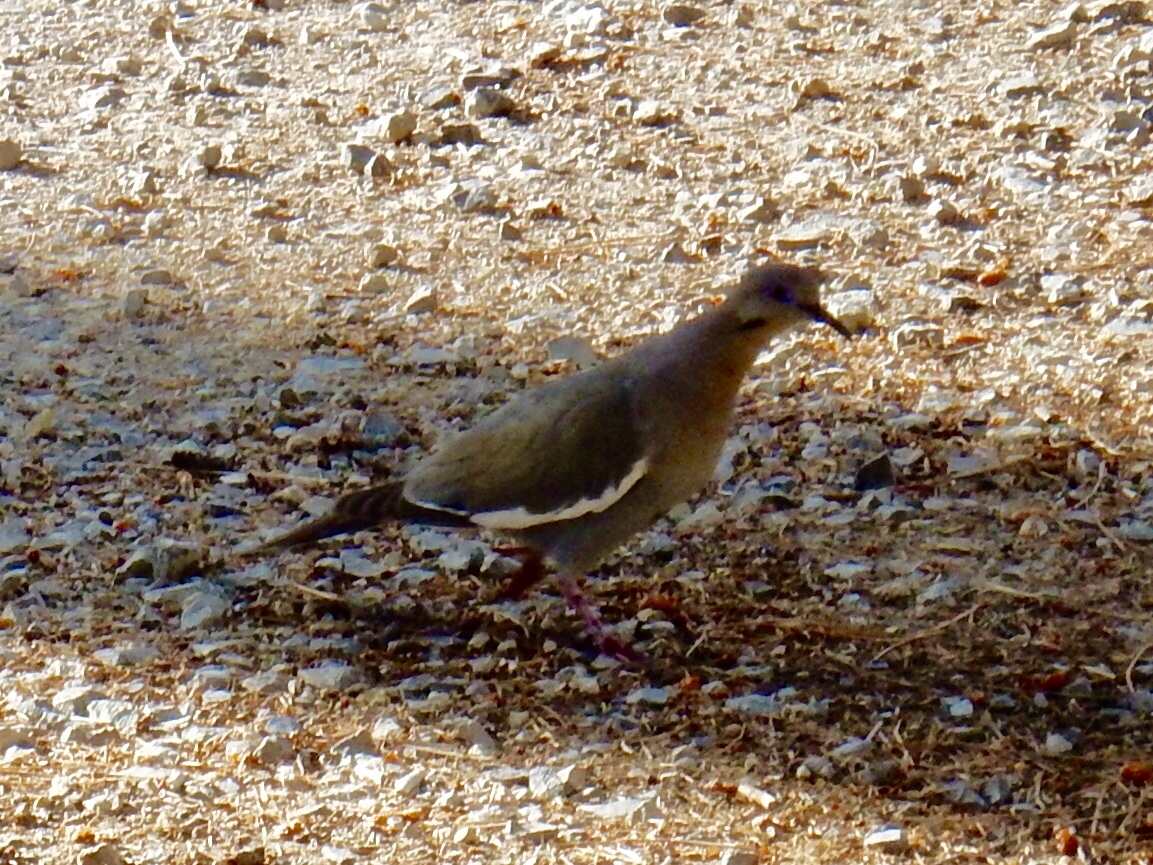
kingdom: Animalia
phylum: Chordata
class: Aves
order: Columbiformes
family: Columbidae
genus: Zenaida
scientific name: Zenaida asiatica
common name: White-winged dove
